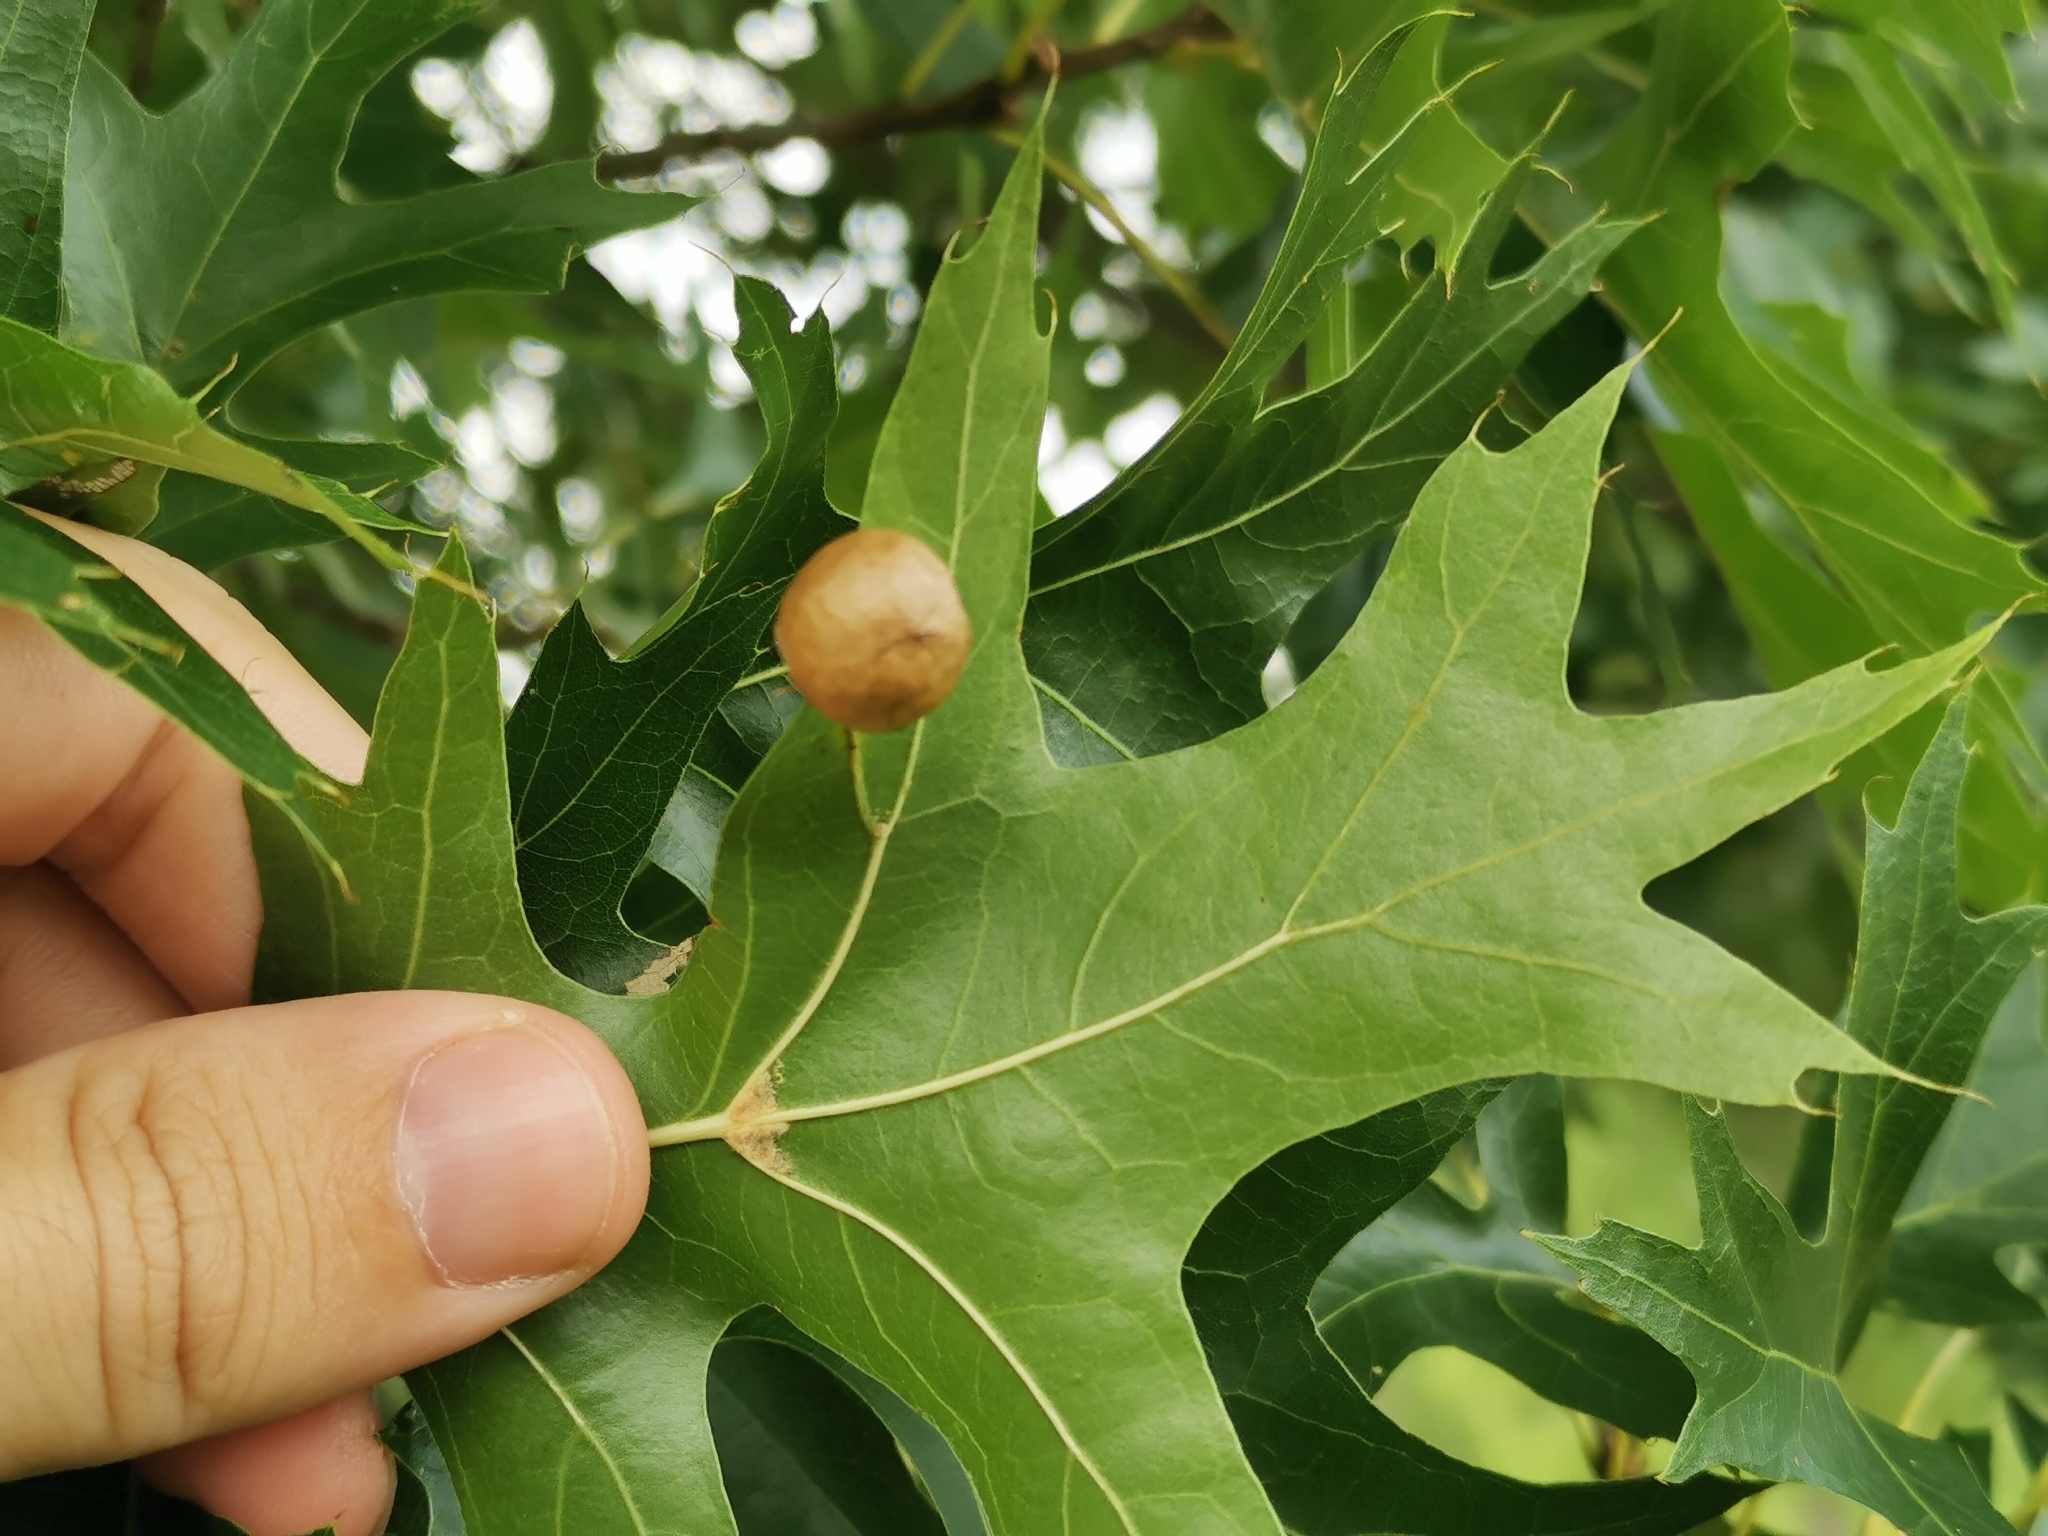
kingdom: Animalia
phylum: Arthropoda
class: Insecta
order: Hymenoptera
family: Cynipidae
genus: Amphibolips
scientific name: Amphibolips
